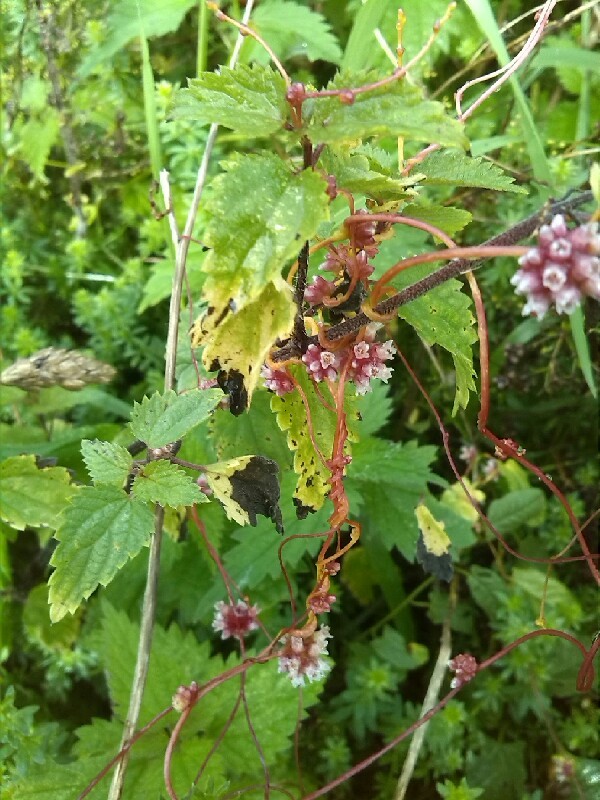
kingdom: Plantae
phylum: Tracheophyta
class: Magnoliopsida
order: Solanales
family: Convolvulaceae
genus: Cuscuta
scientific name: Cuscuta europaea
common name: Greater dodder
